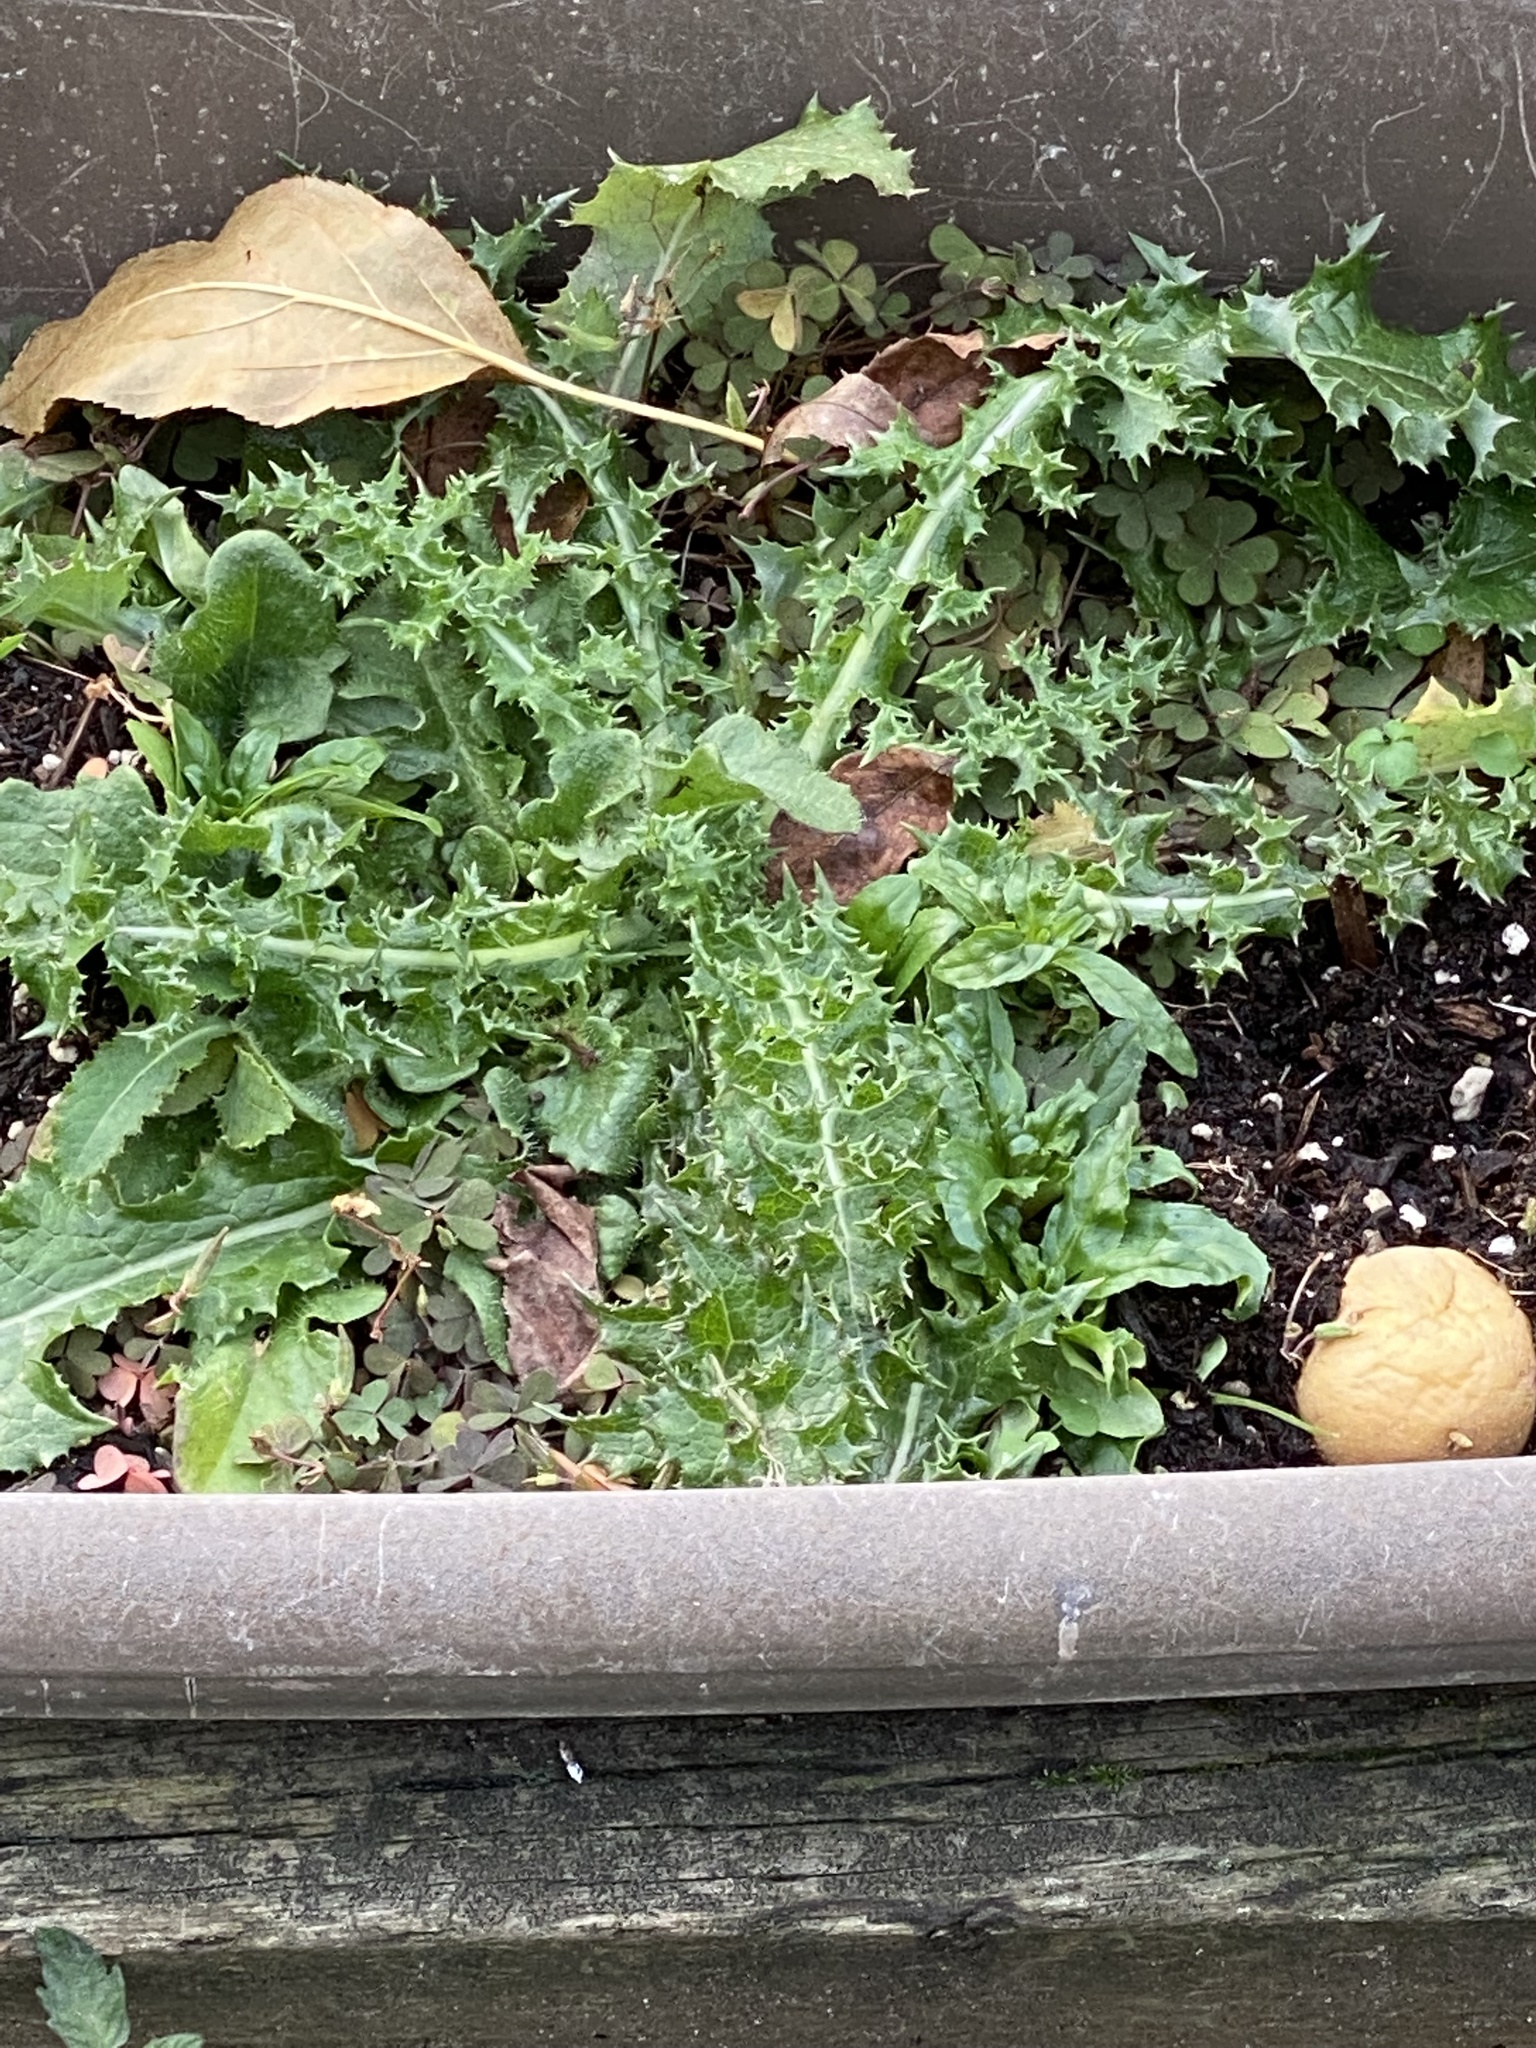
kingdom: Plantae
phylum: Tracheophyta
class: Magnoliopsida
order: Asterales
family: Asteraceae
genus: Sonchus
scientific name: Sonchus asper
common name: Prickly sow-thistle
